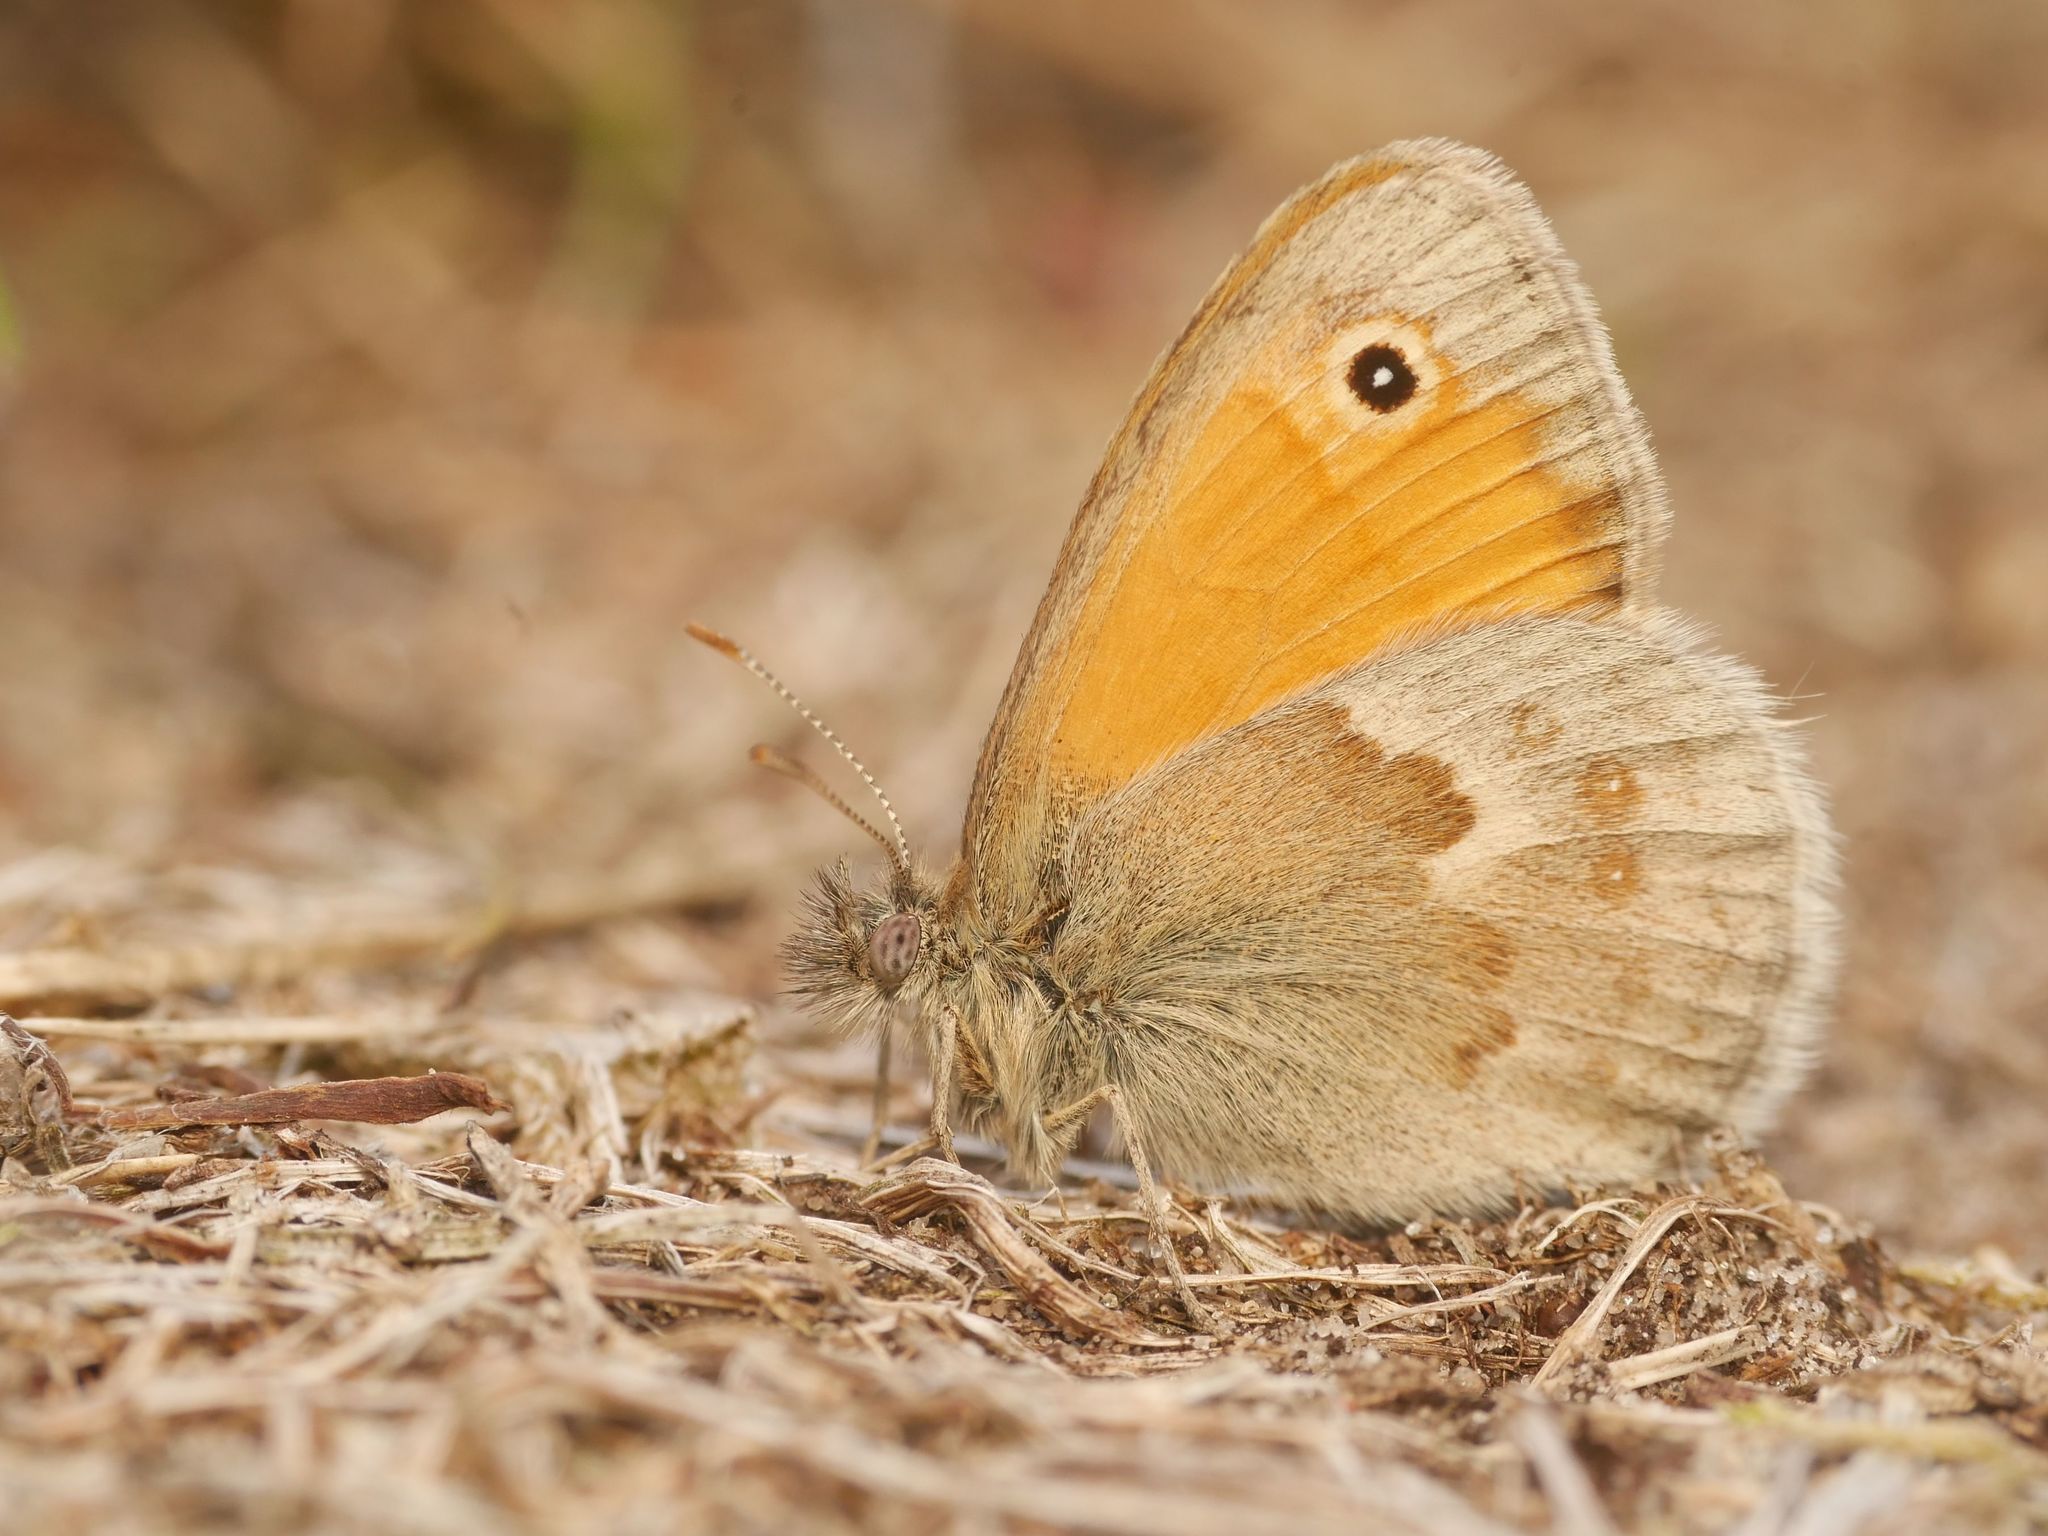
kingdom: Animalia
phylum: Arthropoda
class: Insecta
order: Lepidoptera
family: Nymphalidae
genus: Coenonympha
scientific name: Coenonympha pamphilus
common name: Small heath
